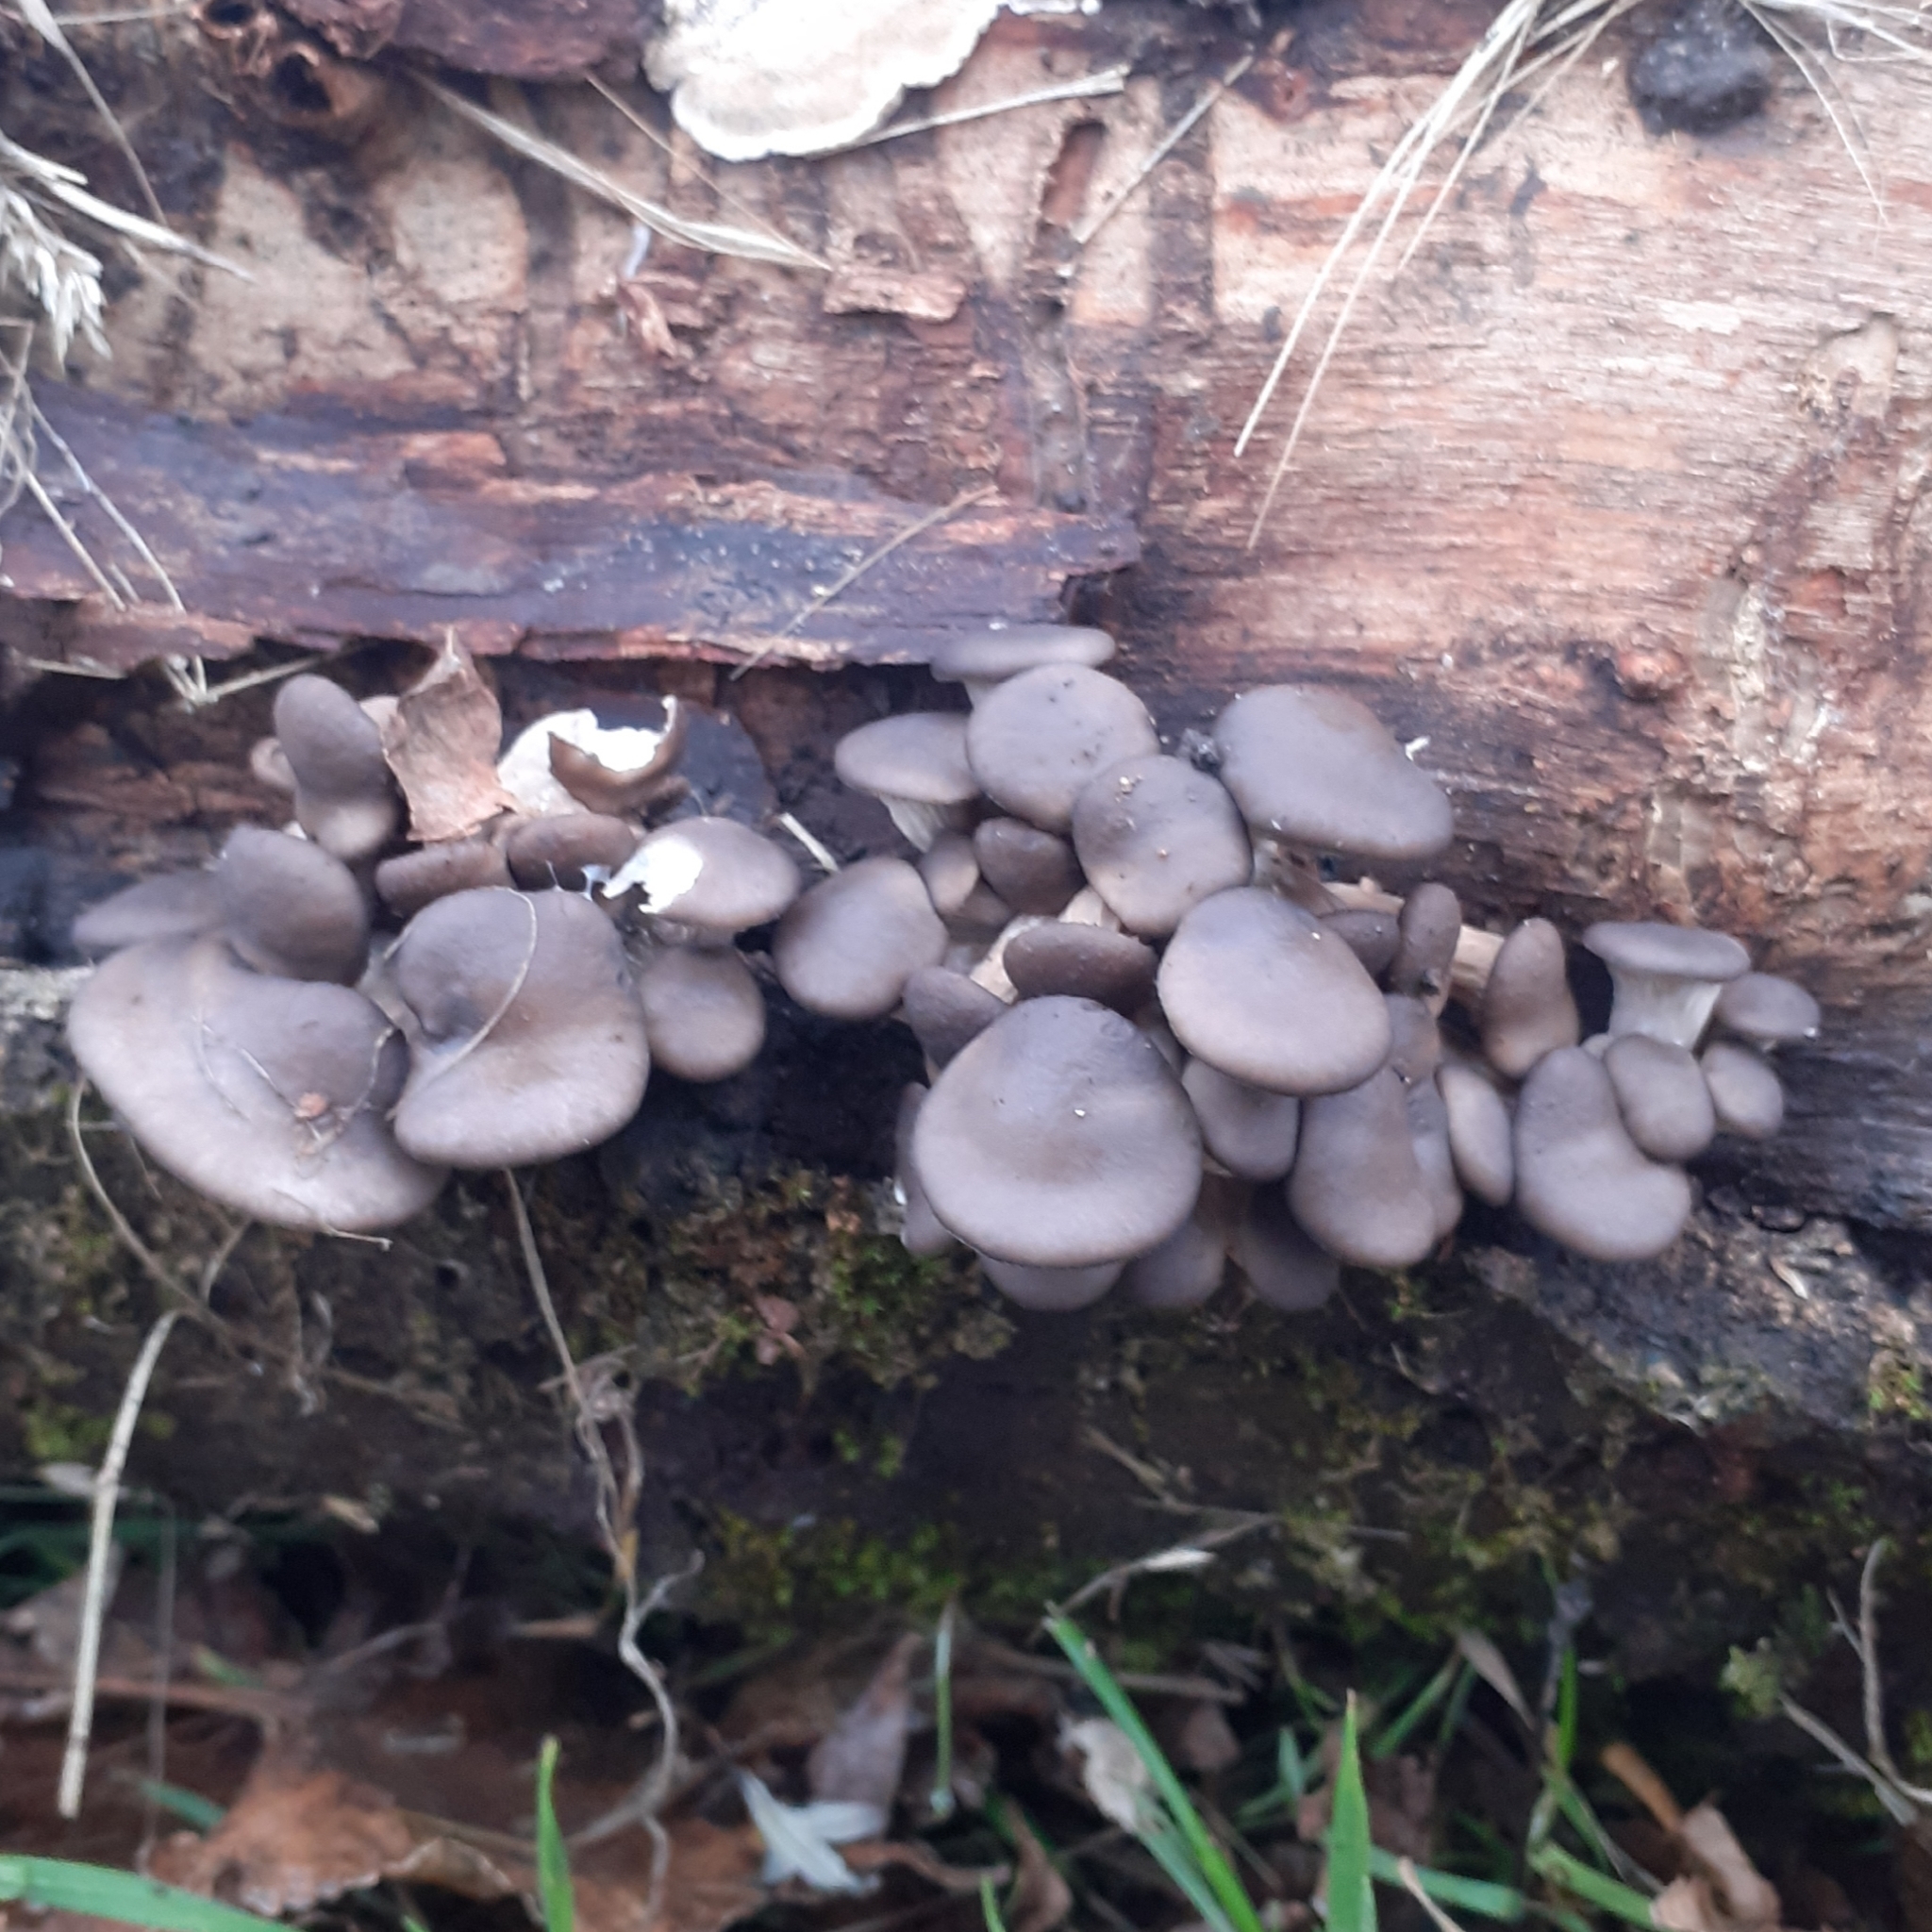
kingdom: Fungi
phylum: Basidiomycota
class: Agaricomycetes
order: Agaricales
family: Pleurotaceae
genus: Pleurotus
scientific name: Pleurotus ostreatus
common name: Oyster mushroom
